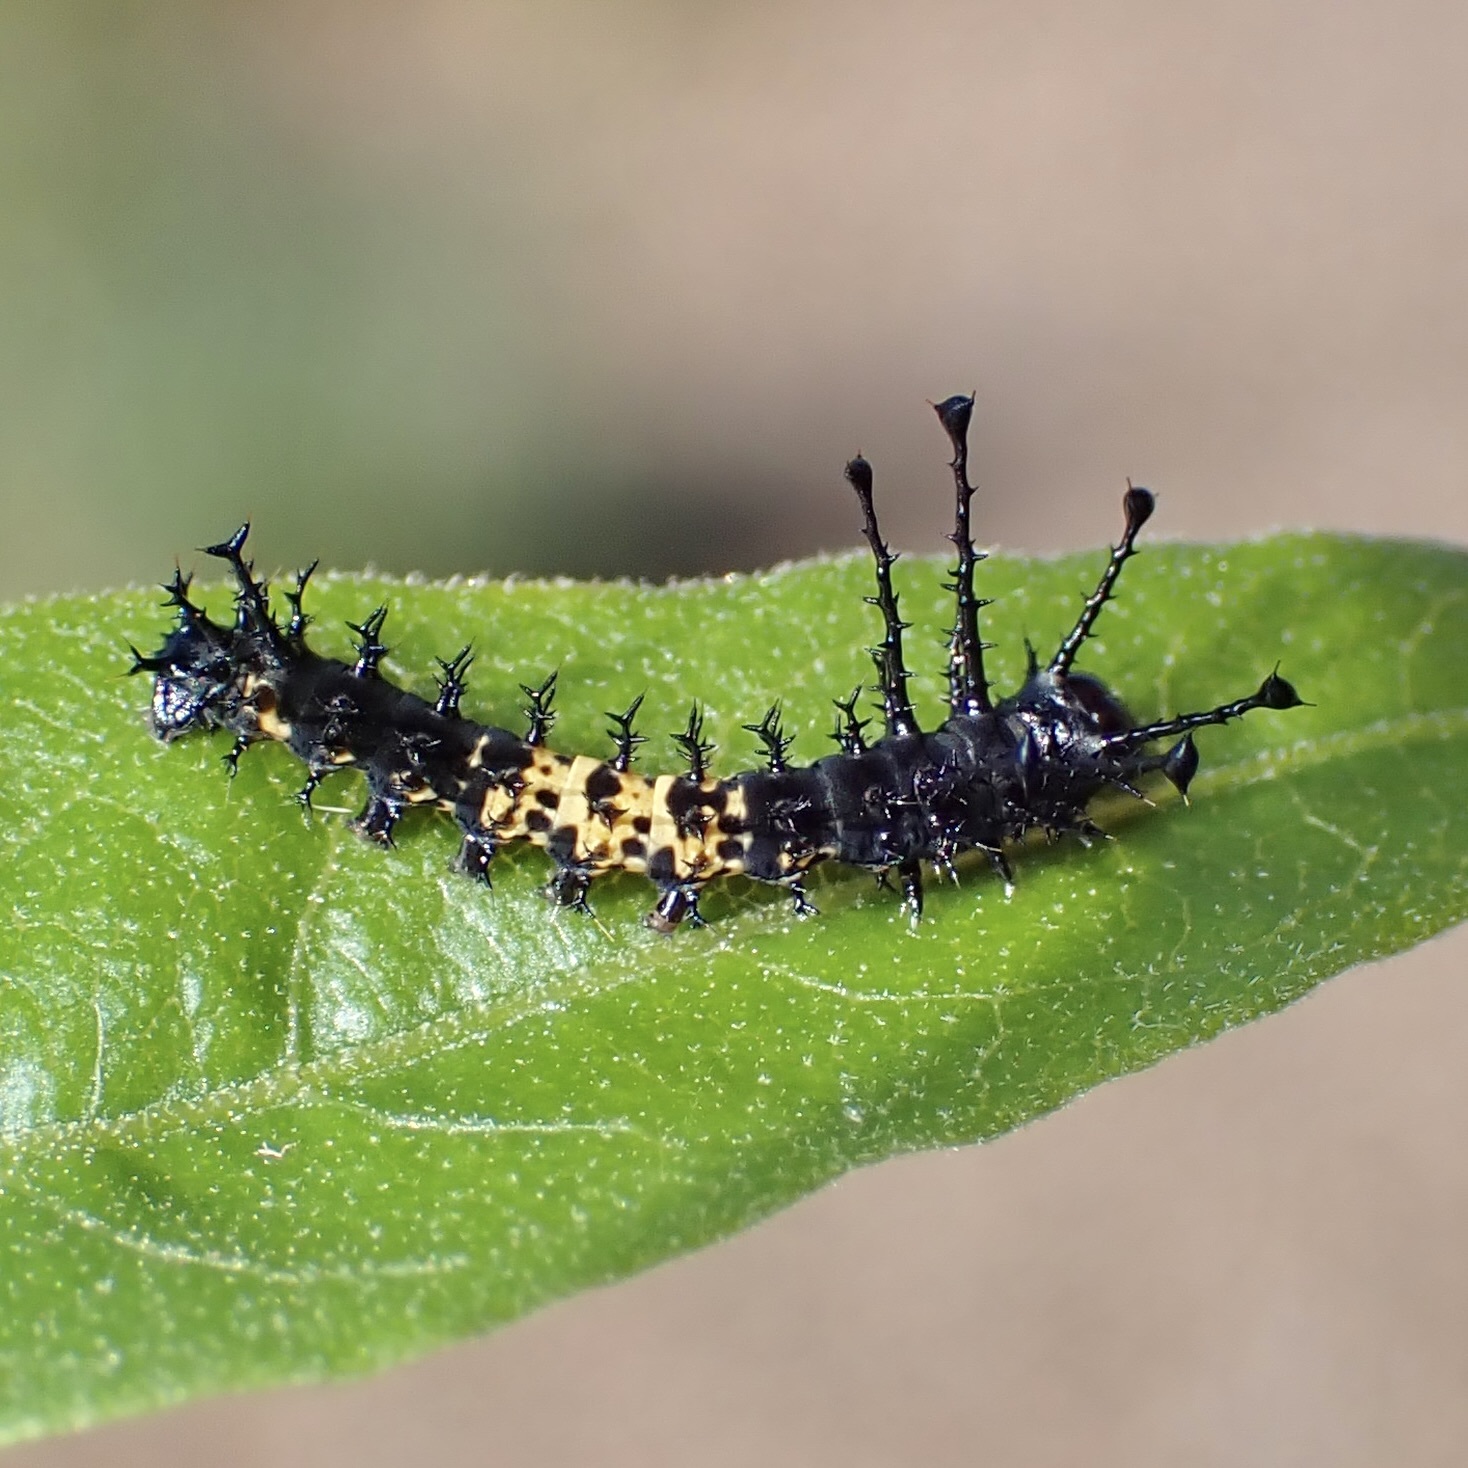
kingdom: Animalia
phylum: Arthropoda
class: Insecta
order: Lepidoptera
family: Saturniidae
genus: Citheronia
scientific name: Citheronia splendens
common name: Splendid royal moth
